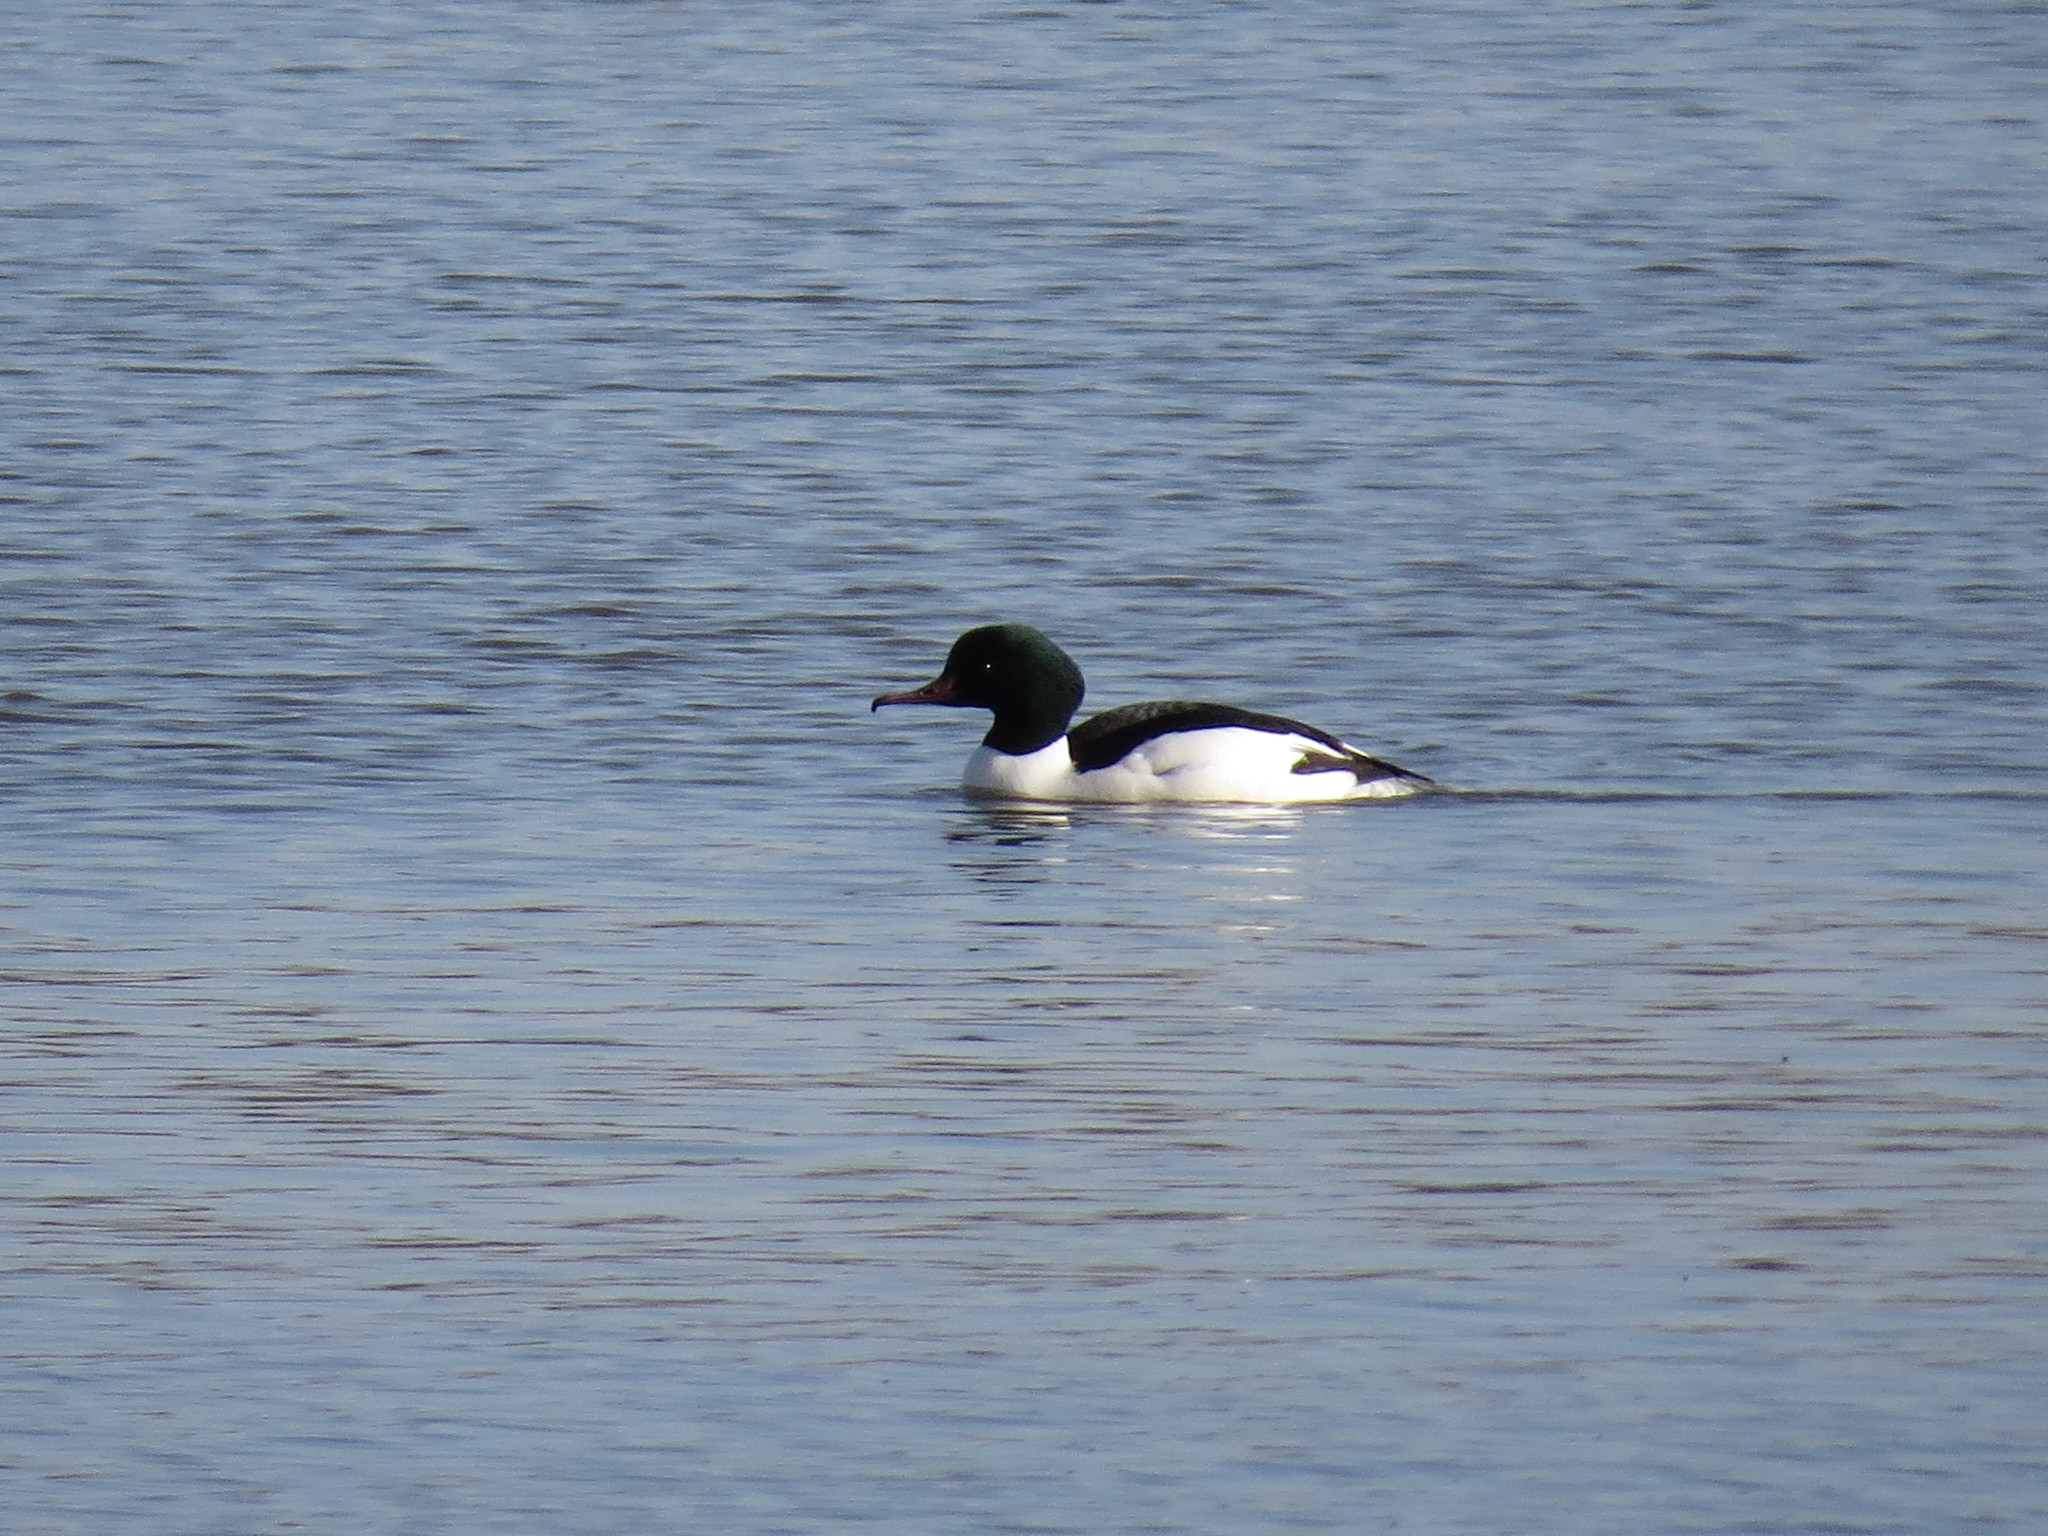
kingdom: Animalia
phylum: Chordata
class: Aves
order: Anseriformes
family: Anatidae
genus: Mergus
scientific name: Mergus merganser
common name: Common merganser
